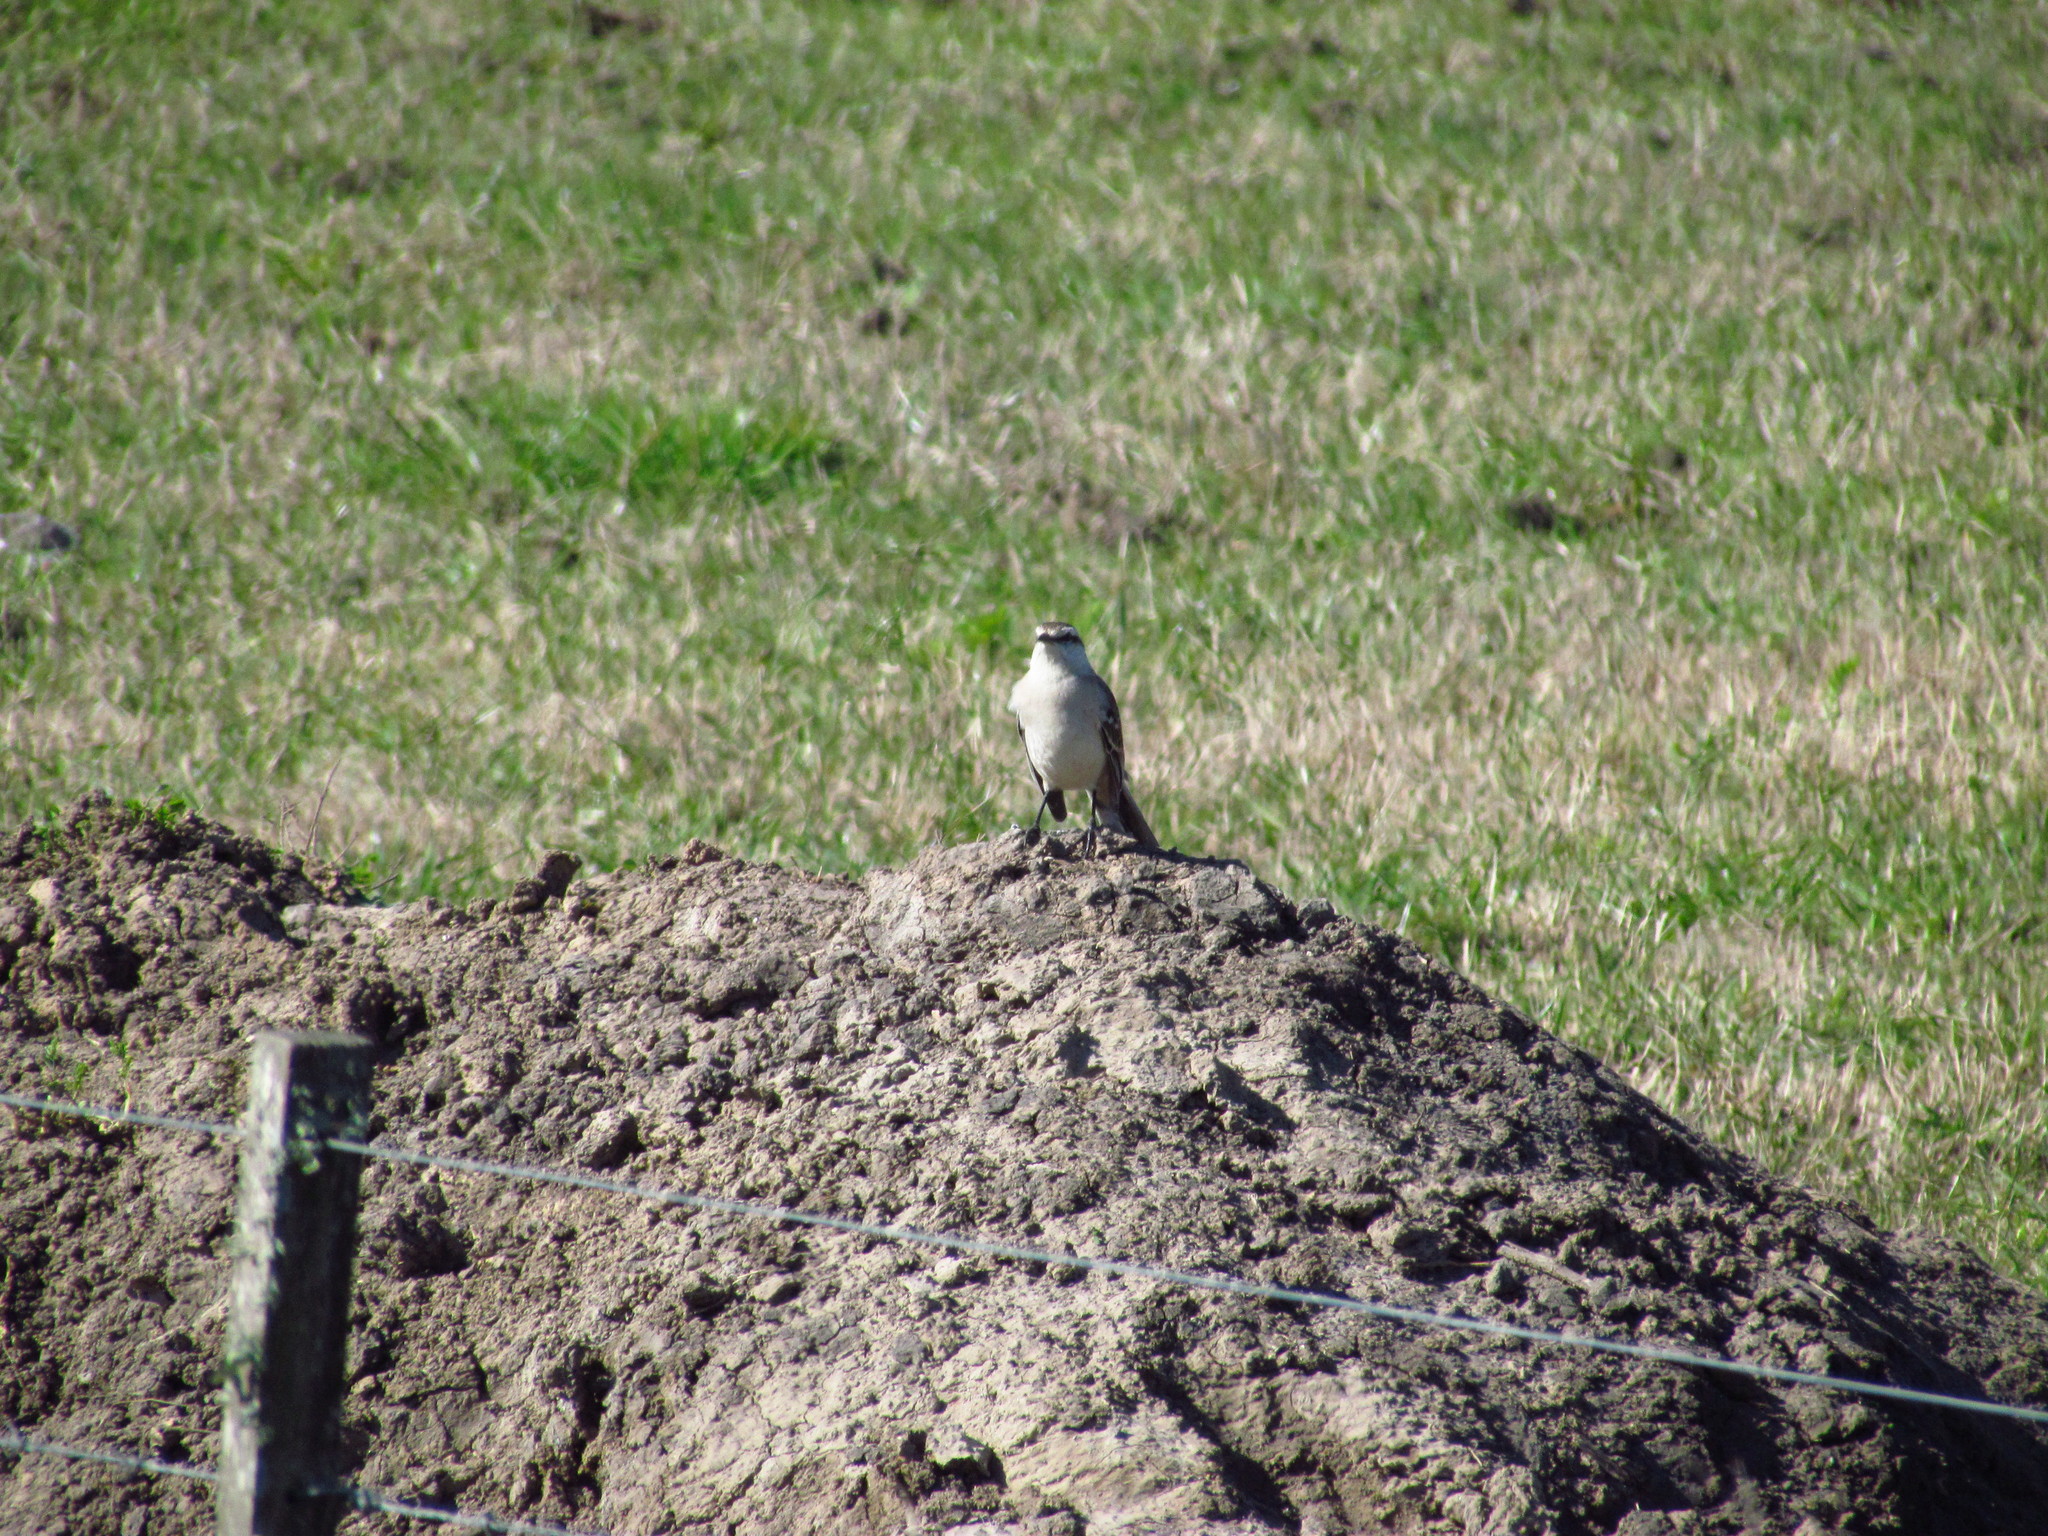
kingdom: Animalia
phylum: Chordata
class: Aves
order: Passeriformes
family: Mimidae
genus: Mimus
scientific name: Mimus saturninus
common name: Chalk-browed mockingbird
